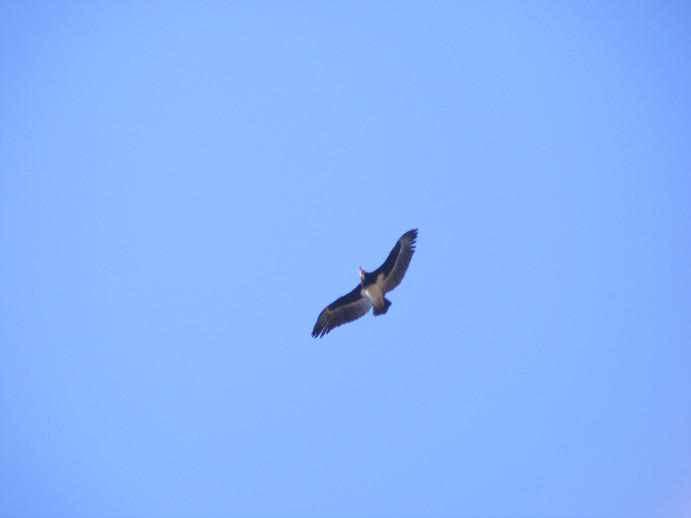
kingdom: Animalia
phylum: Chordata
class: Aves
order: Accipitriformes
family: Accipitridae
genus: Trigonoceps
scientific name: Trigonoceps occipitalis
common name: White-headed vulture
